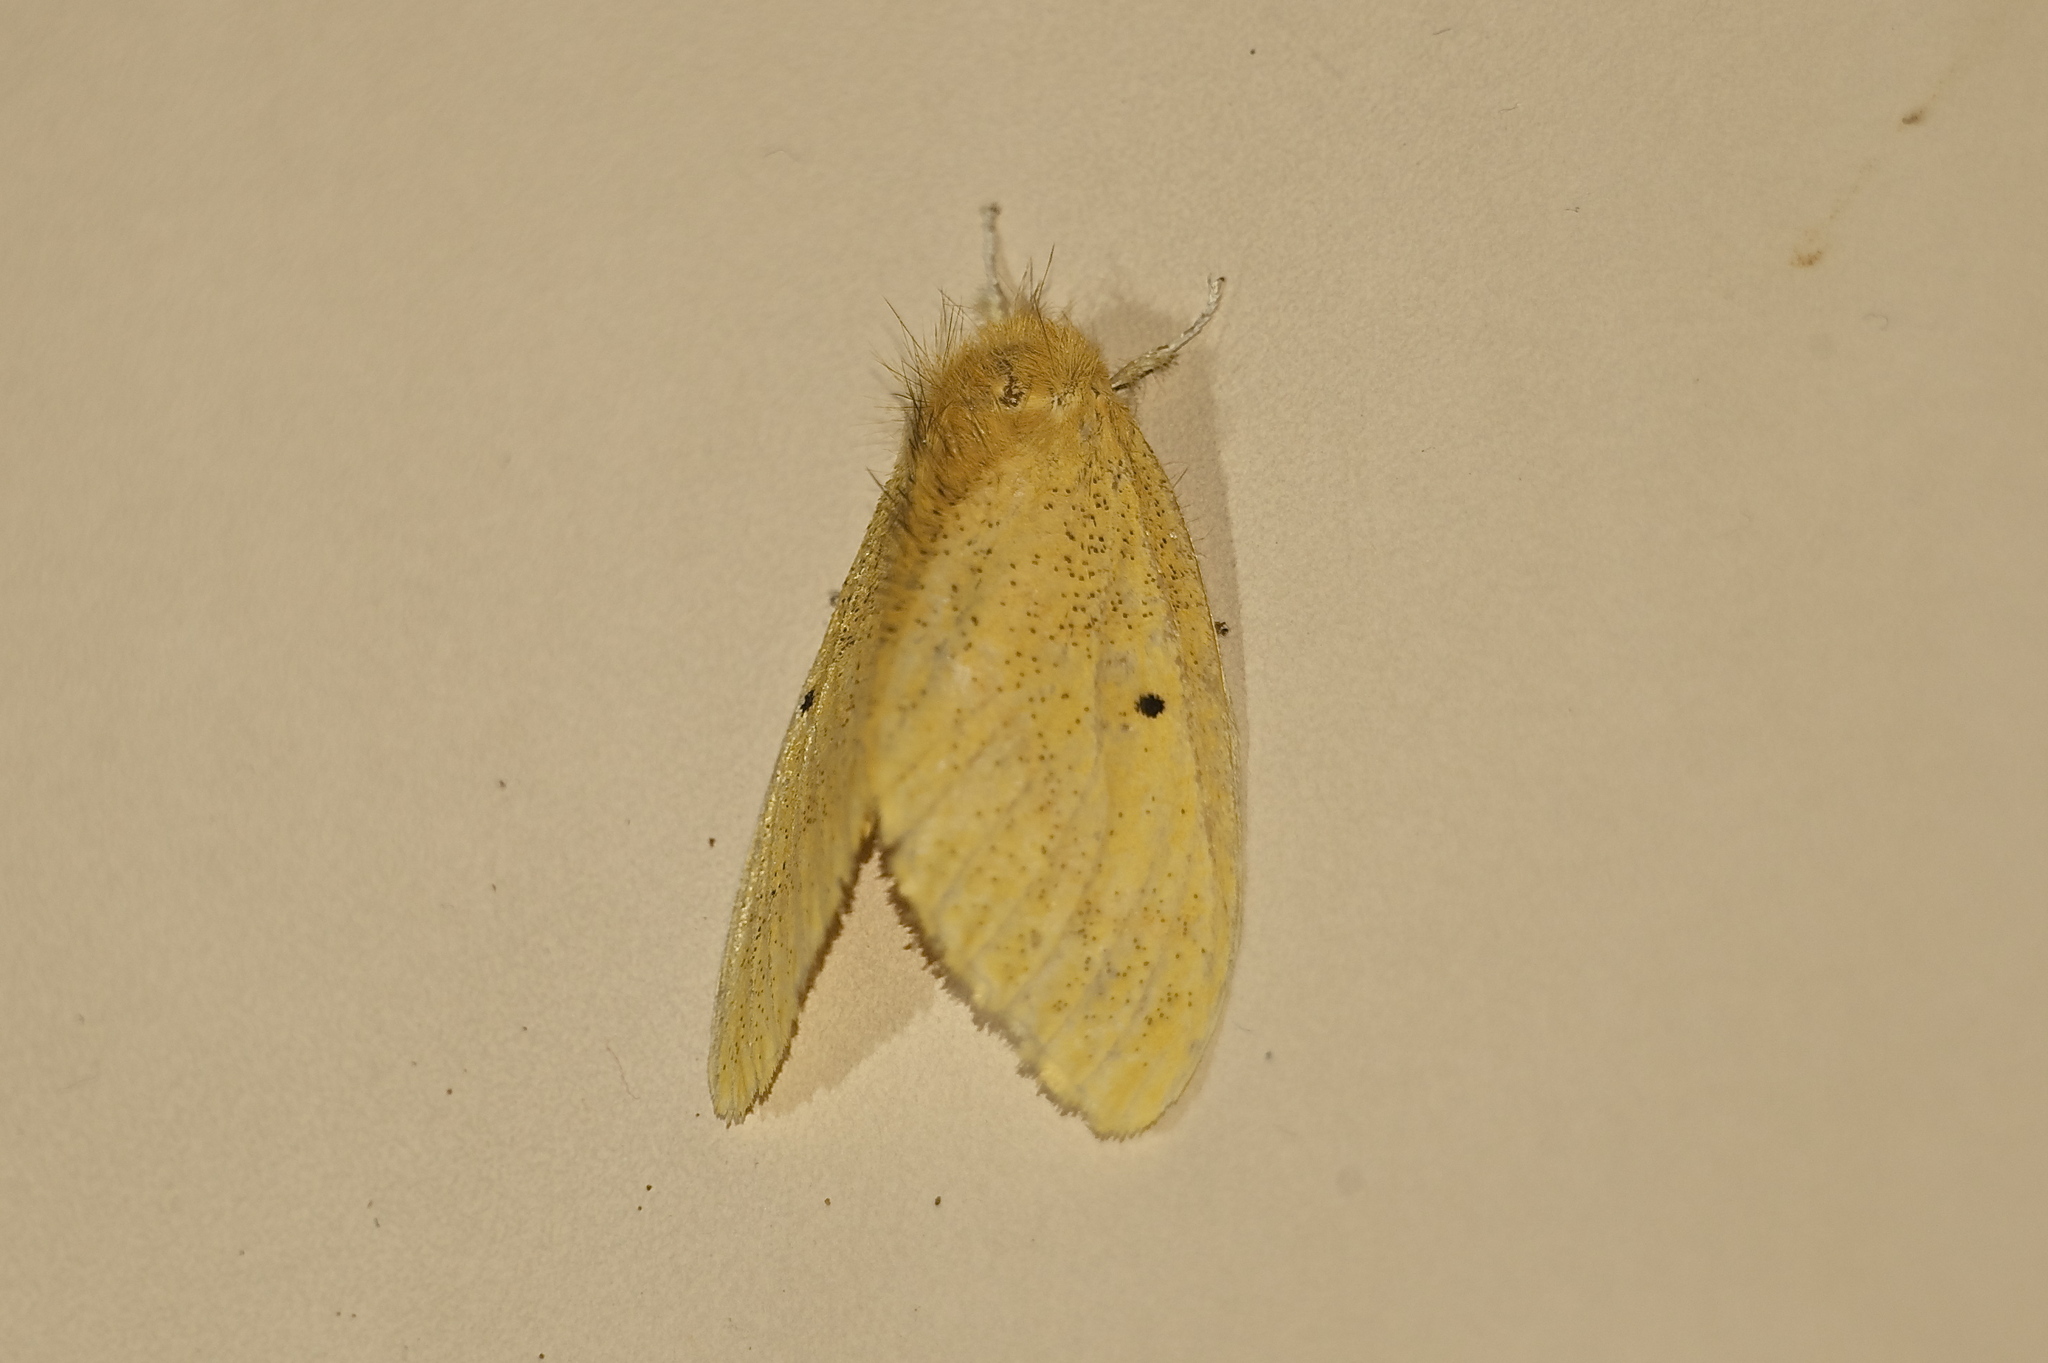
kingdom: Animalia
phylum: Arthropoda
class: Insecta
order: Lepidoptera
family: Erebidae
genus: Nygmia
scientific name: Nygmia plana
